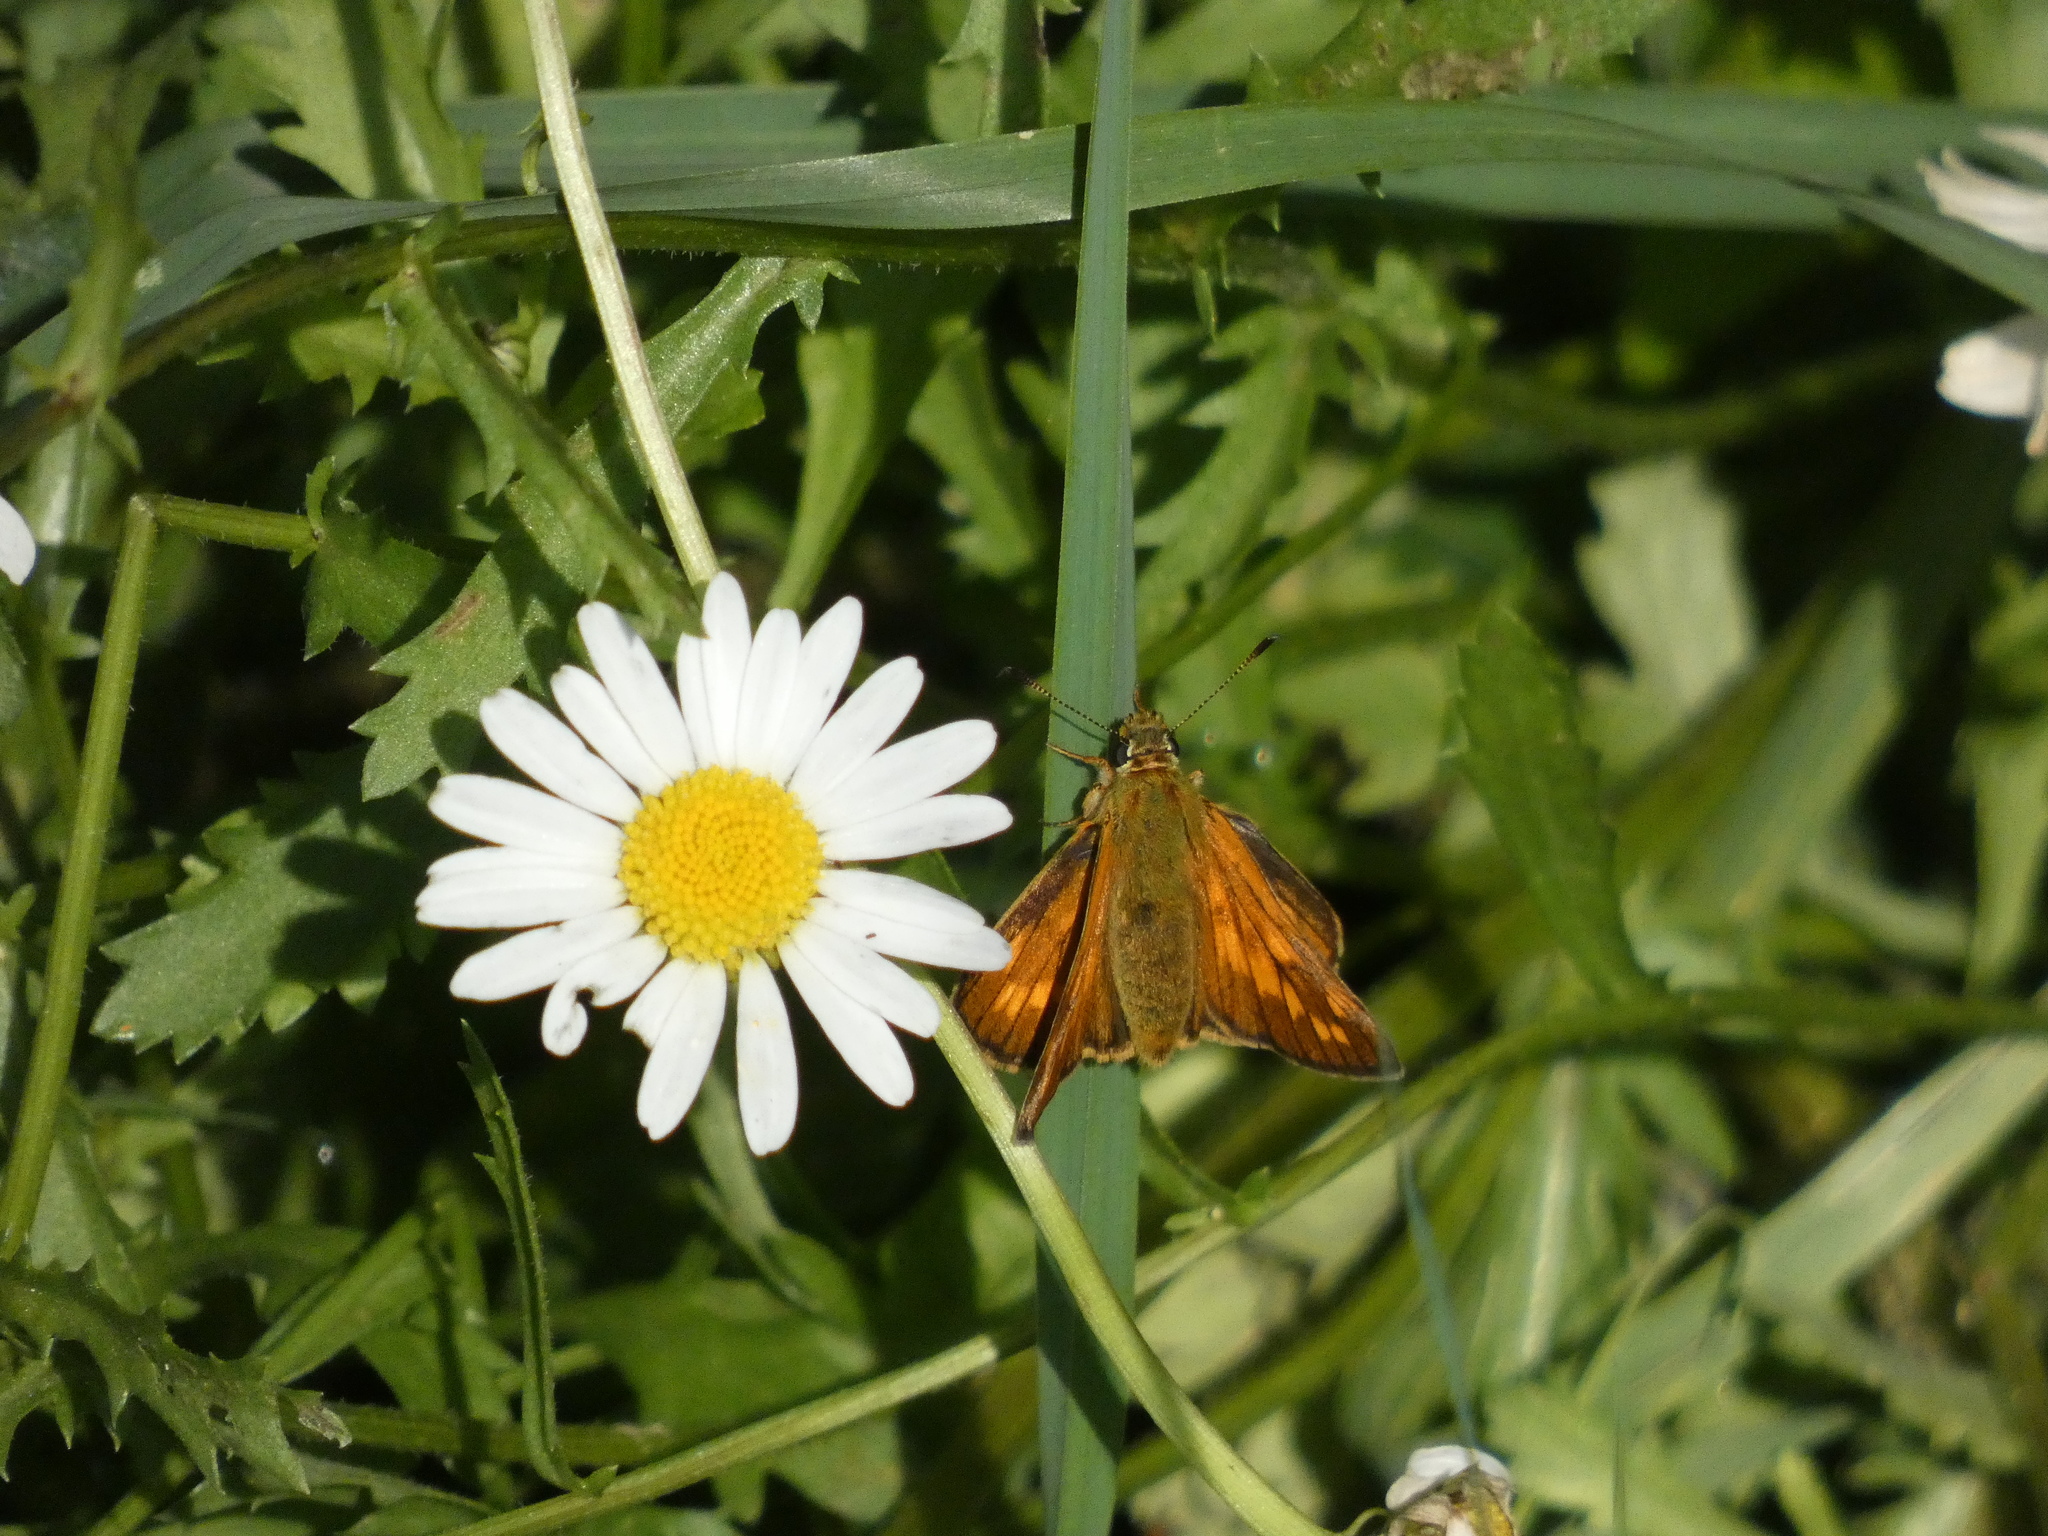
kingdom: Animalia
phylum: Arthropoda
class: Insecta
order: Lepidoptera
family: Hesperiidae
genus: Ochlodes
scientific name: Ochlodes venata
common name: Large skipper
